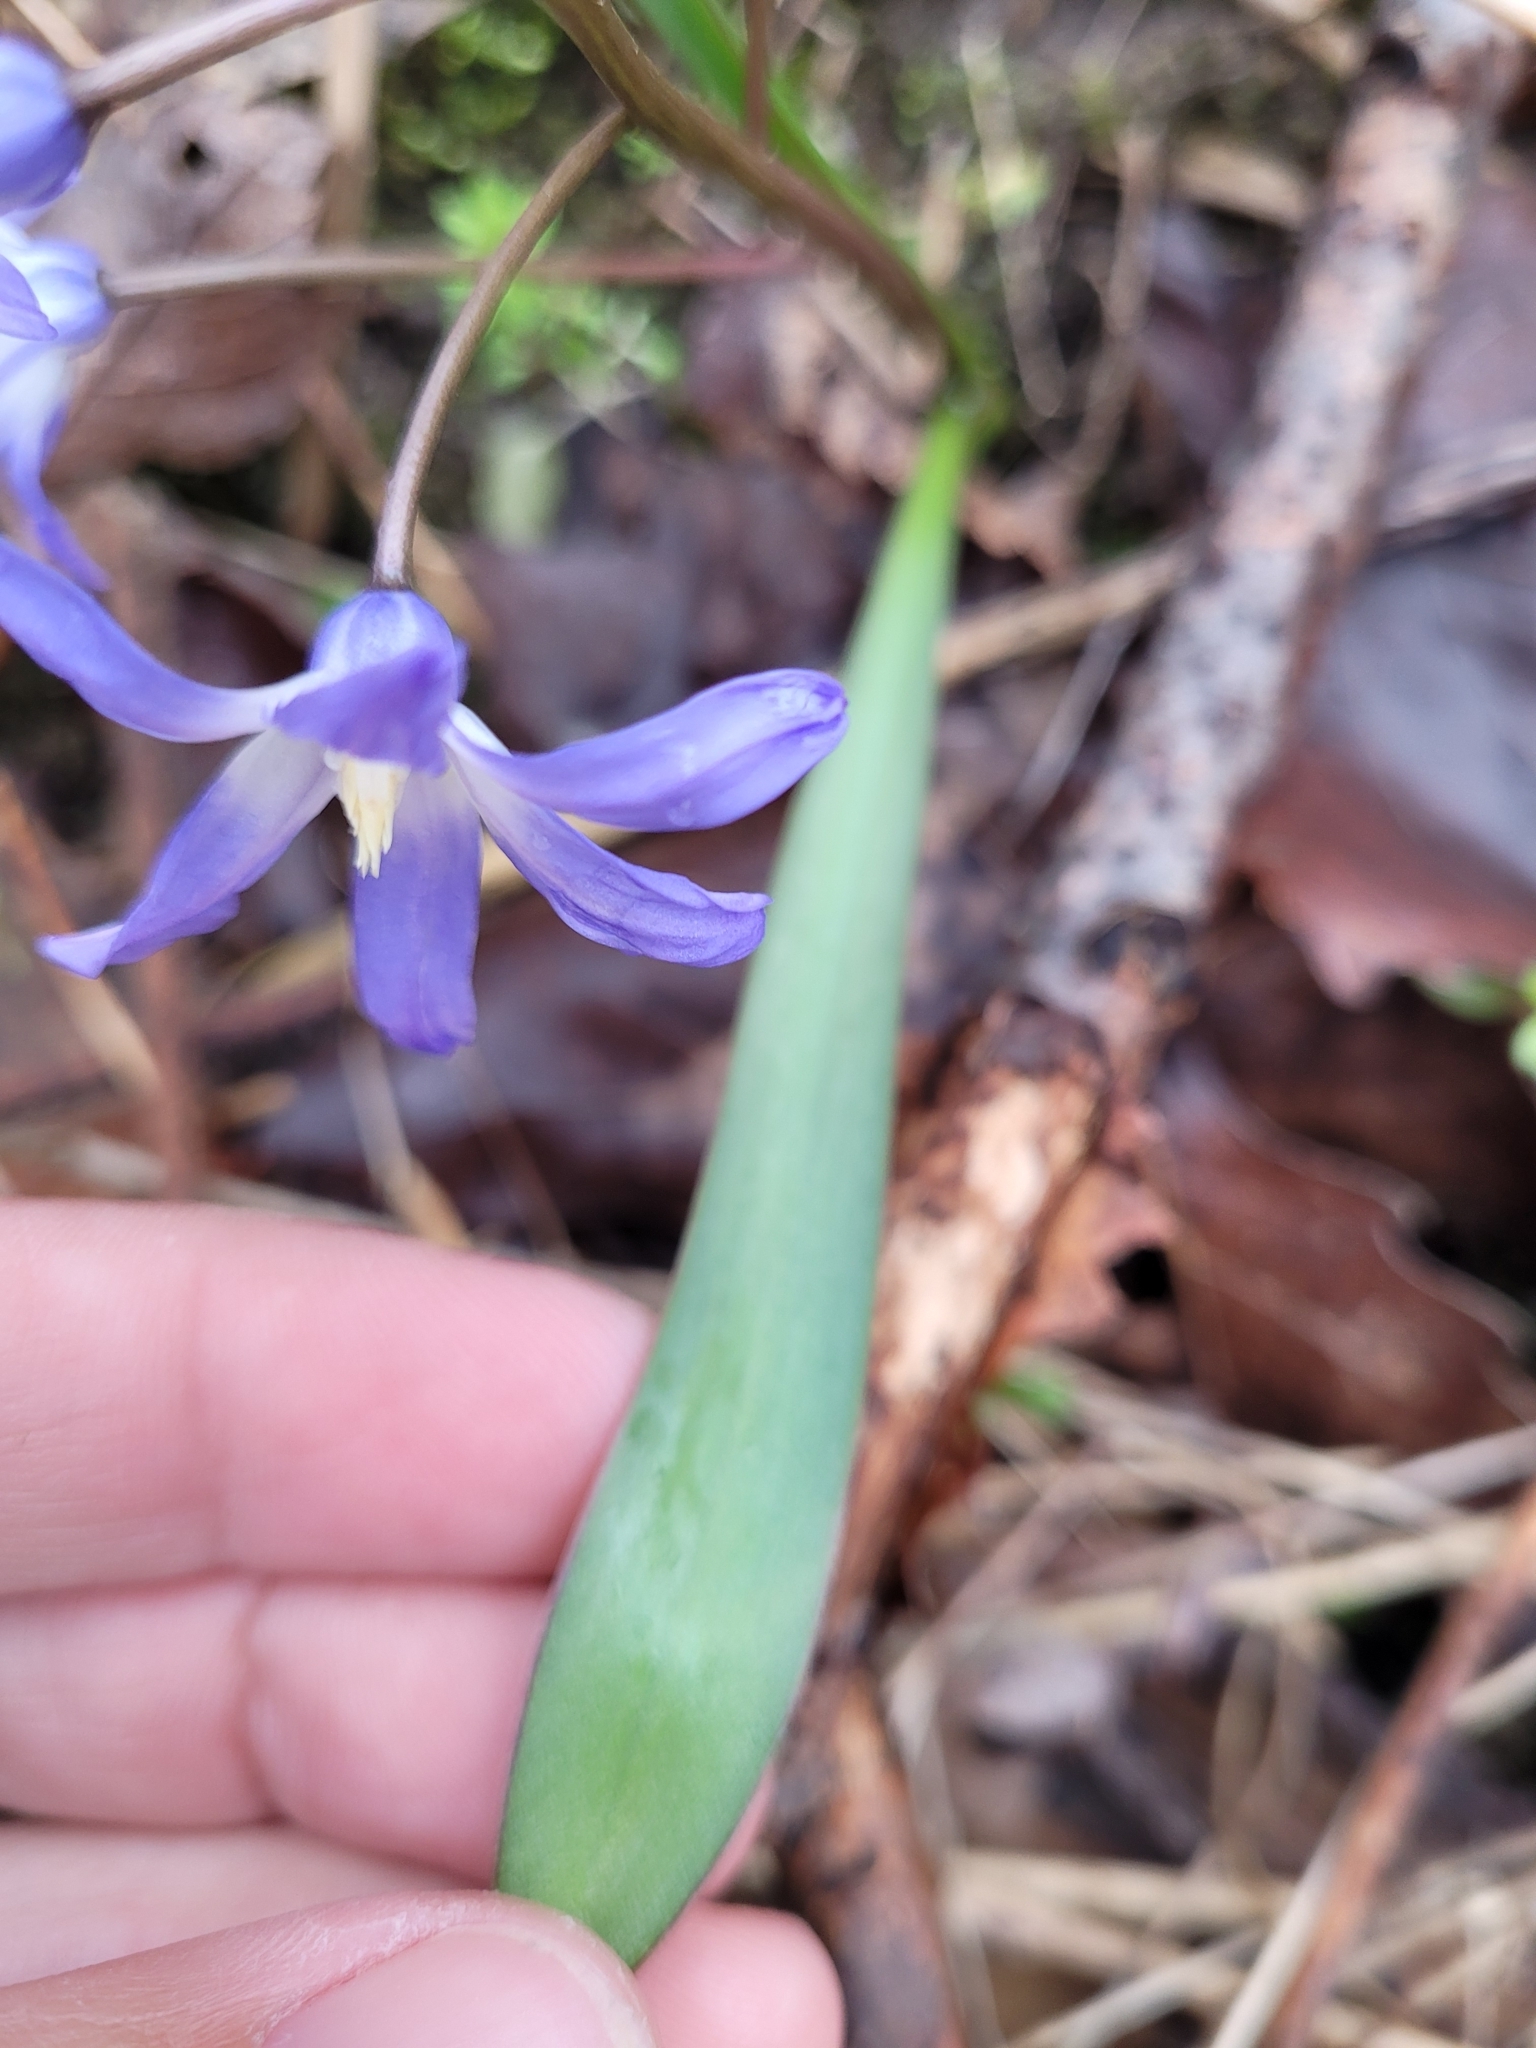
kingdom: Plantae
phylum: Tracheophyta
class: Liliopsida
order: Asparagales
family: Asparagaceae
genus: Scilla
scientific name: Scilla forbesii
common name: Glory-of-the-snow
